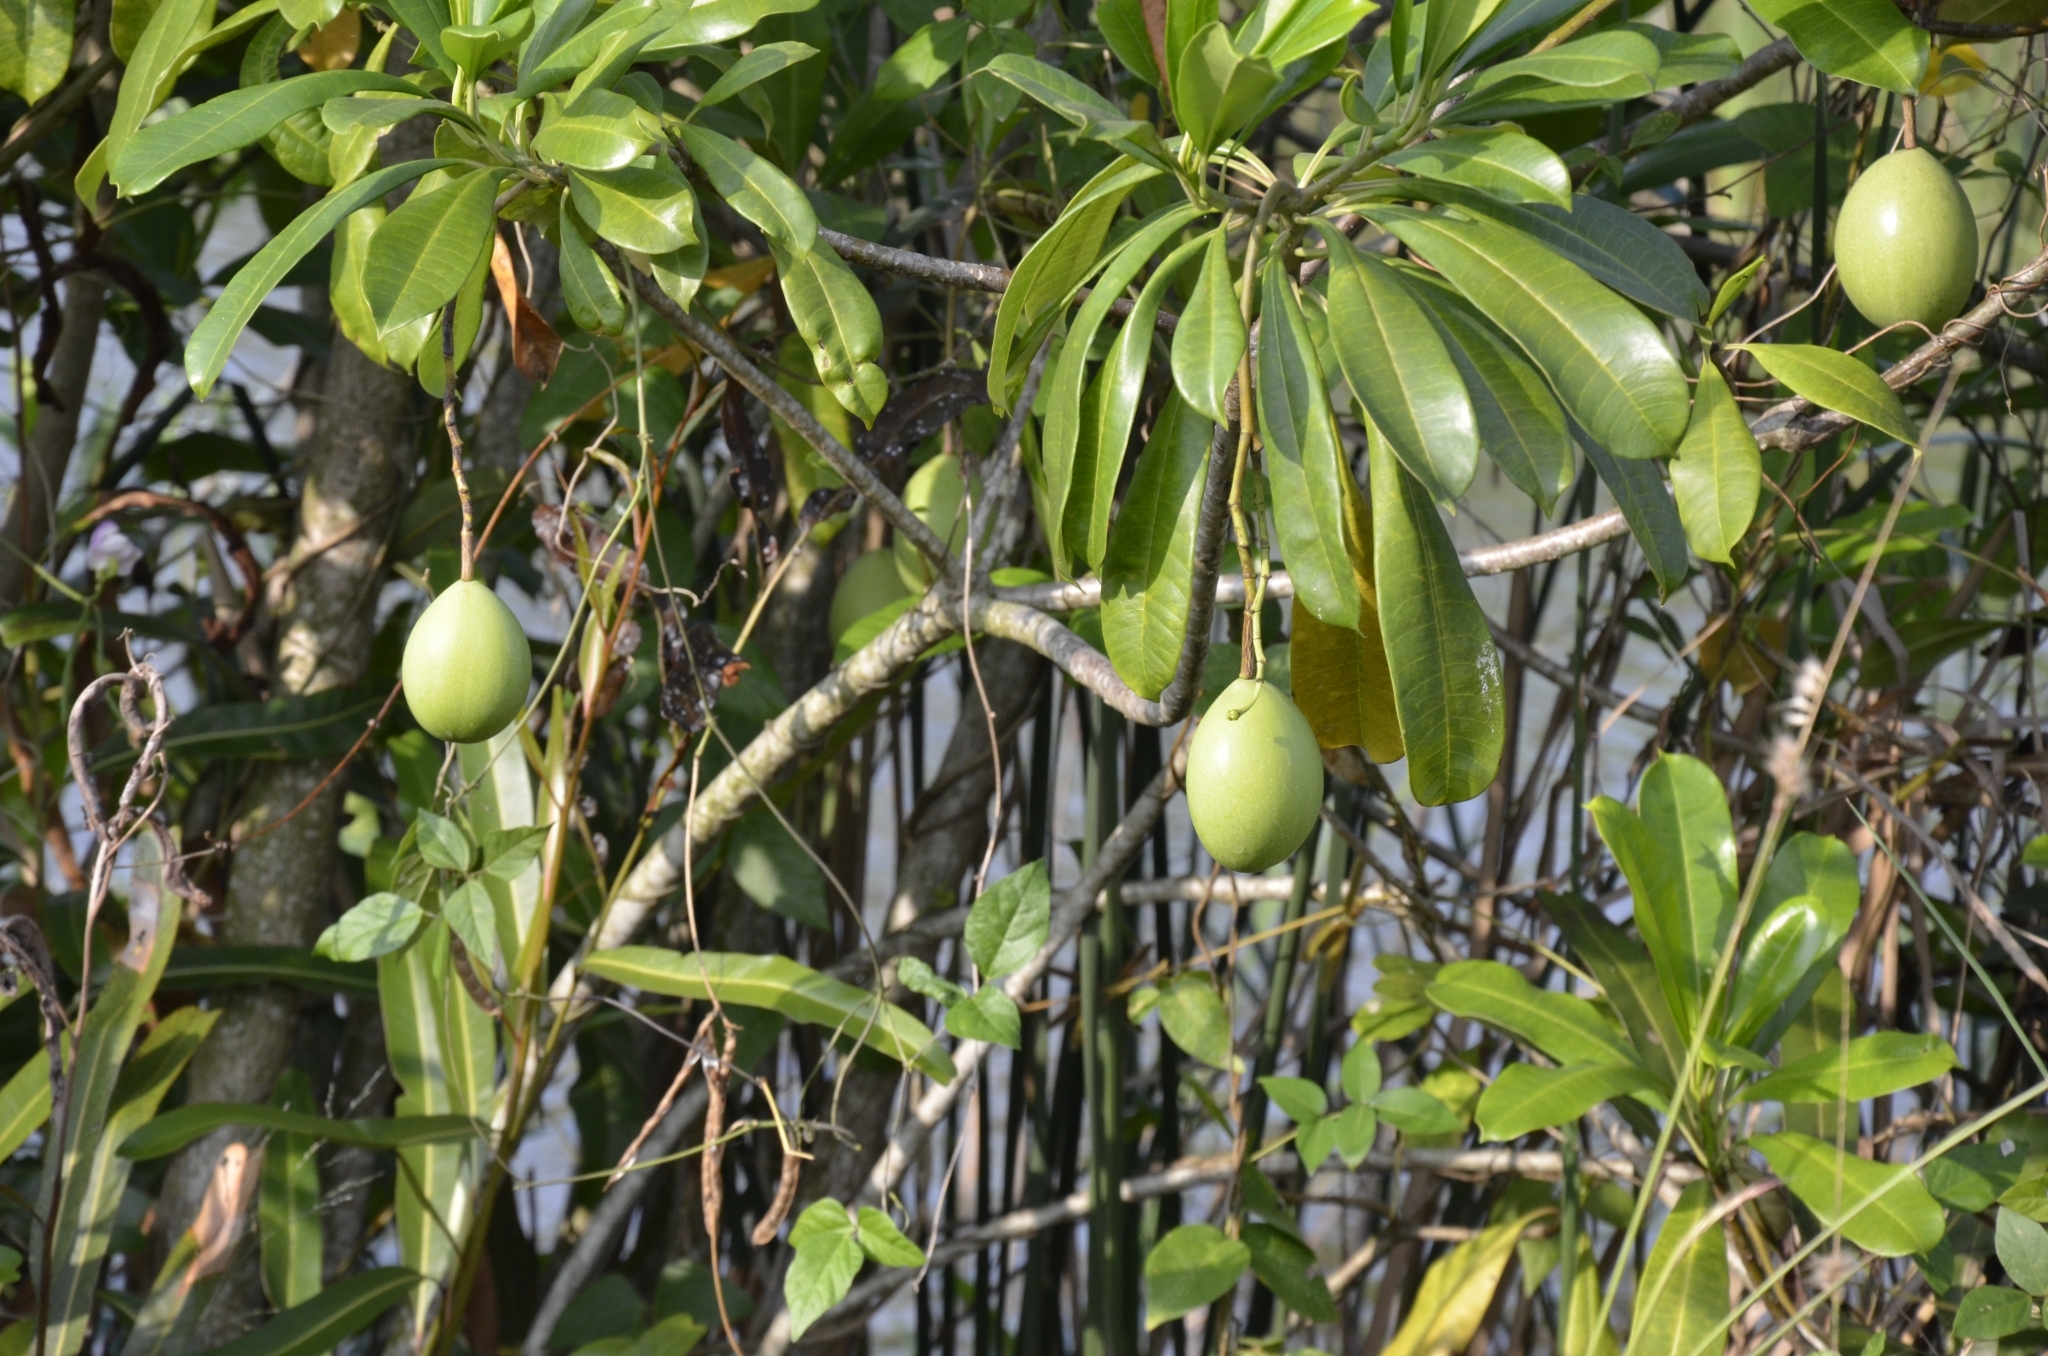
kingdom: Plantae
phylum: Tracheophyta
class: Magnoliopsida
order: Gentianales
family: Apocynaceae
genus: Cerbera
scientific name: Cerbera odollam
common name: Pong-pong
